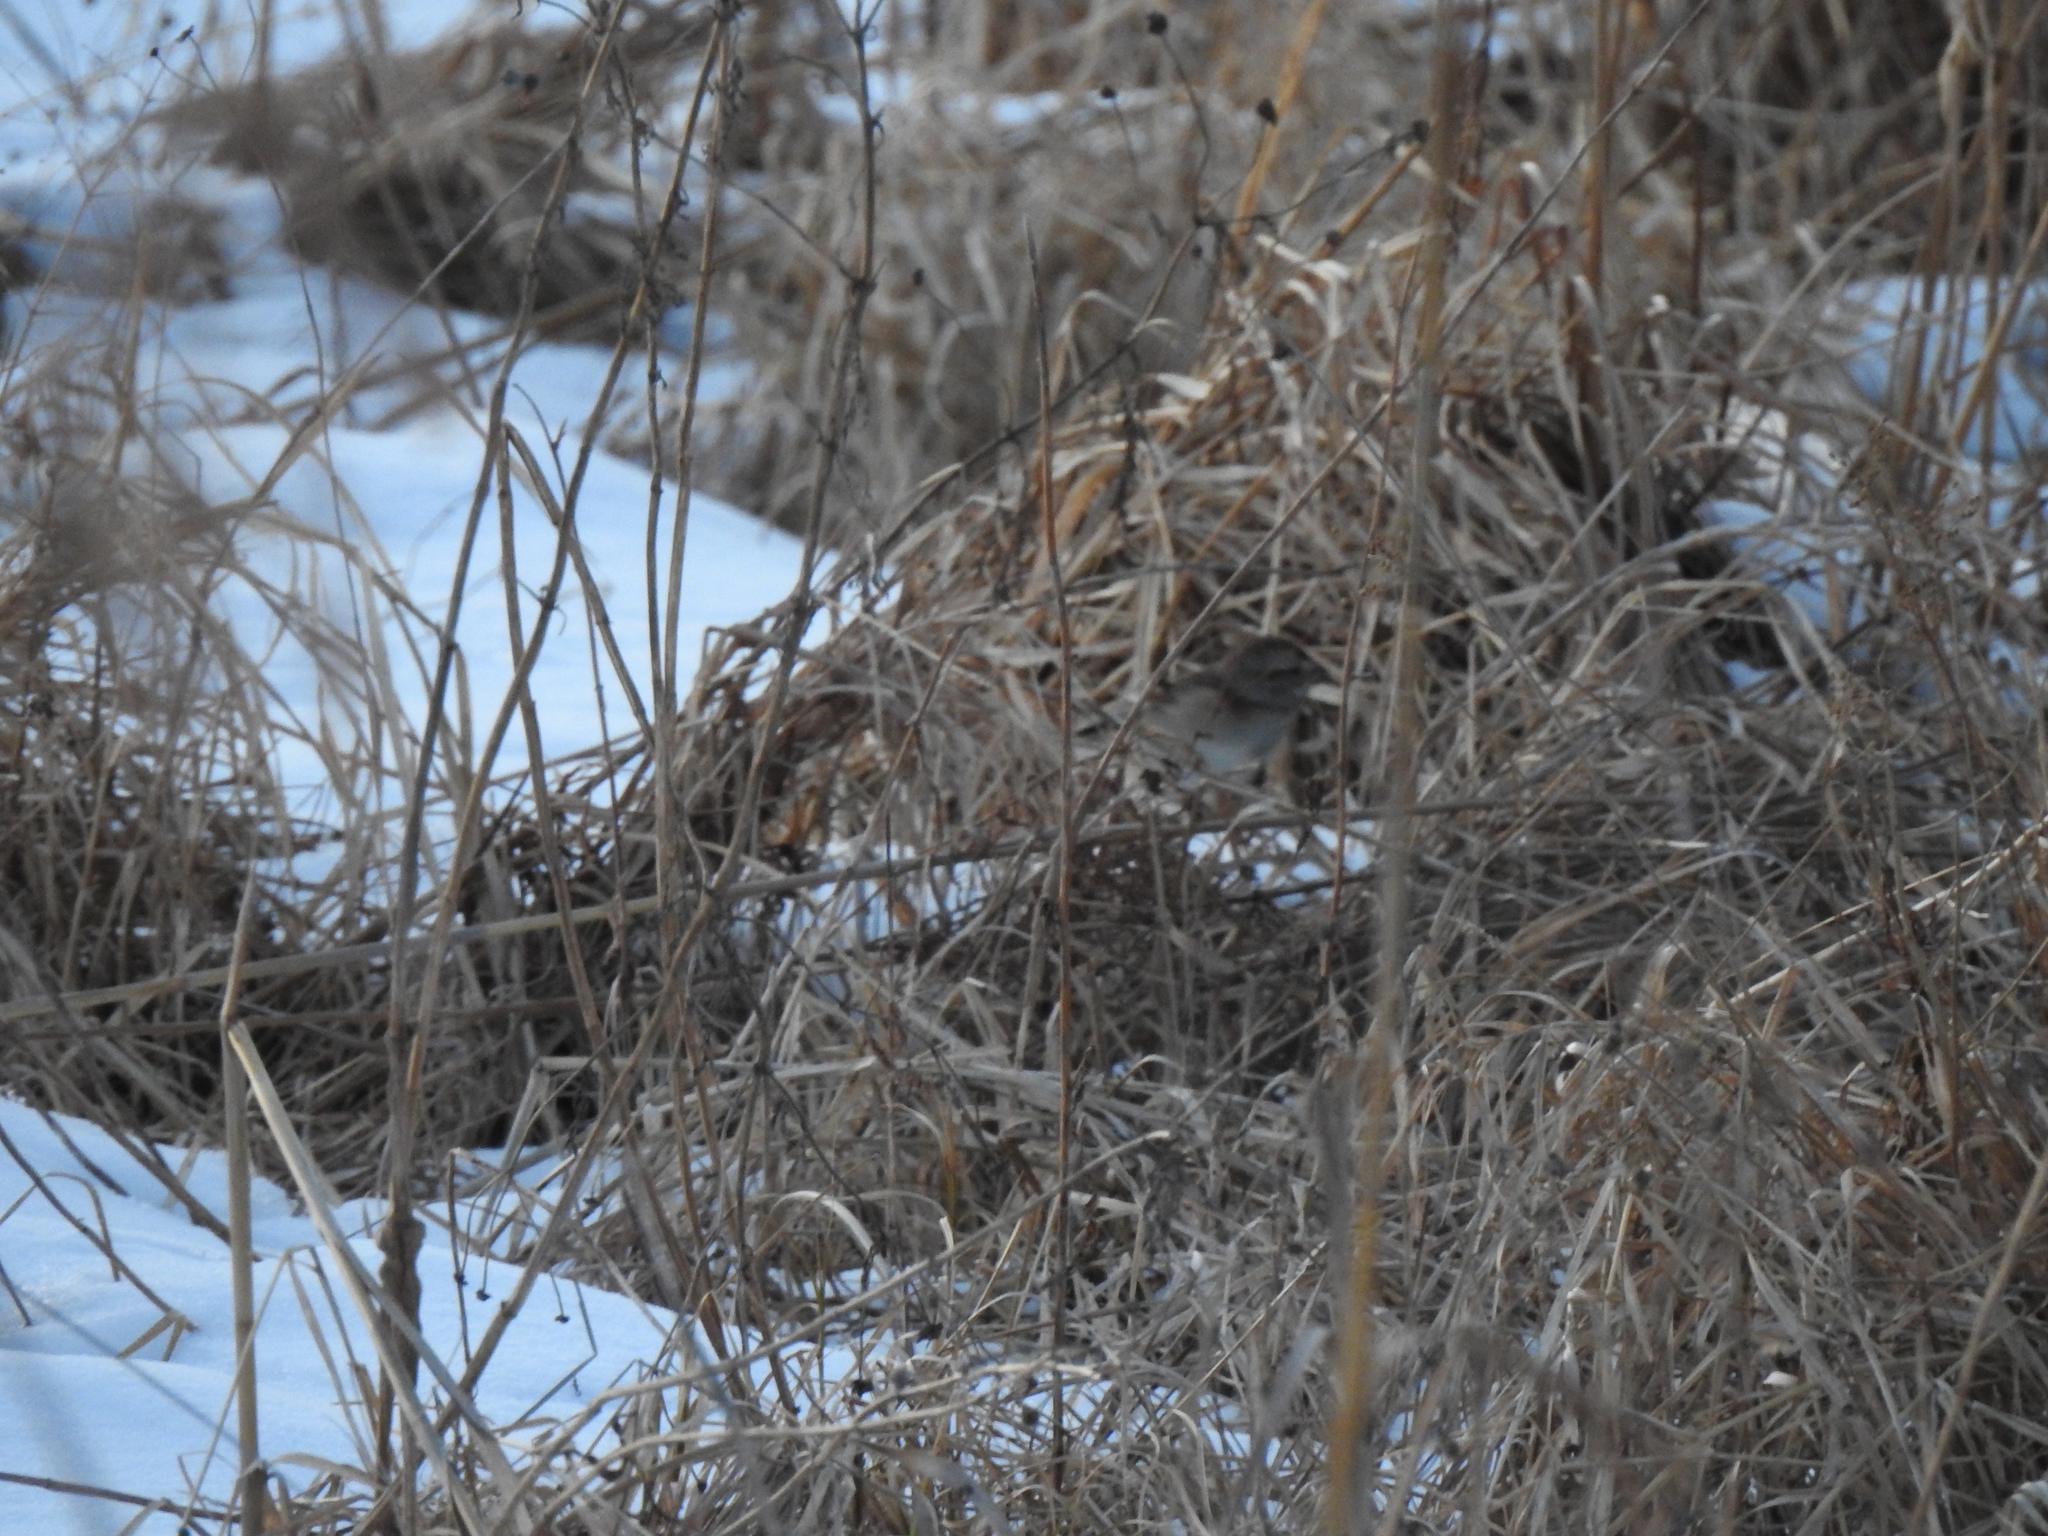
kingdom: Animalia
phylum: Chordata
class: Aves
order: Passeriformes
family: Passerellidae
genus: Spizelloides
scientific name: Spizelloides arborea
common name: American tree sparrow
